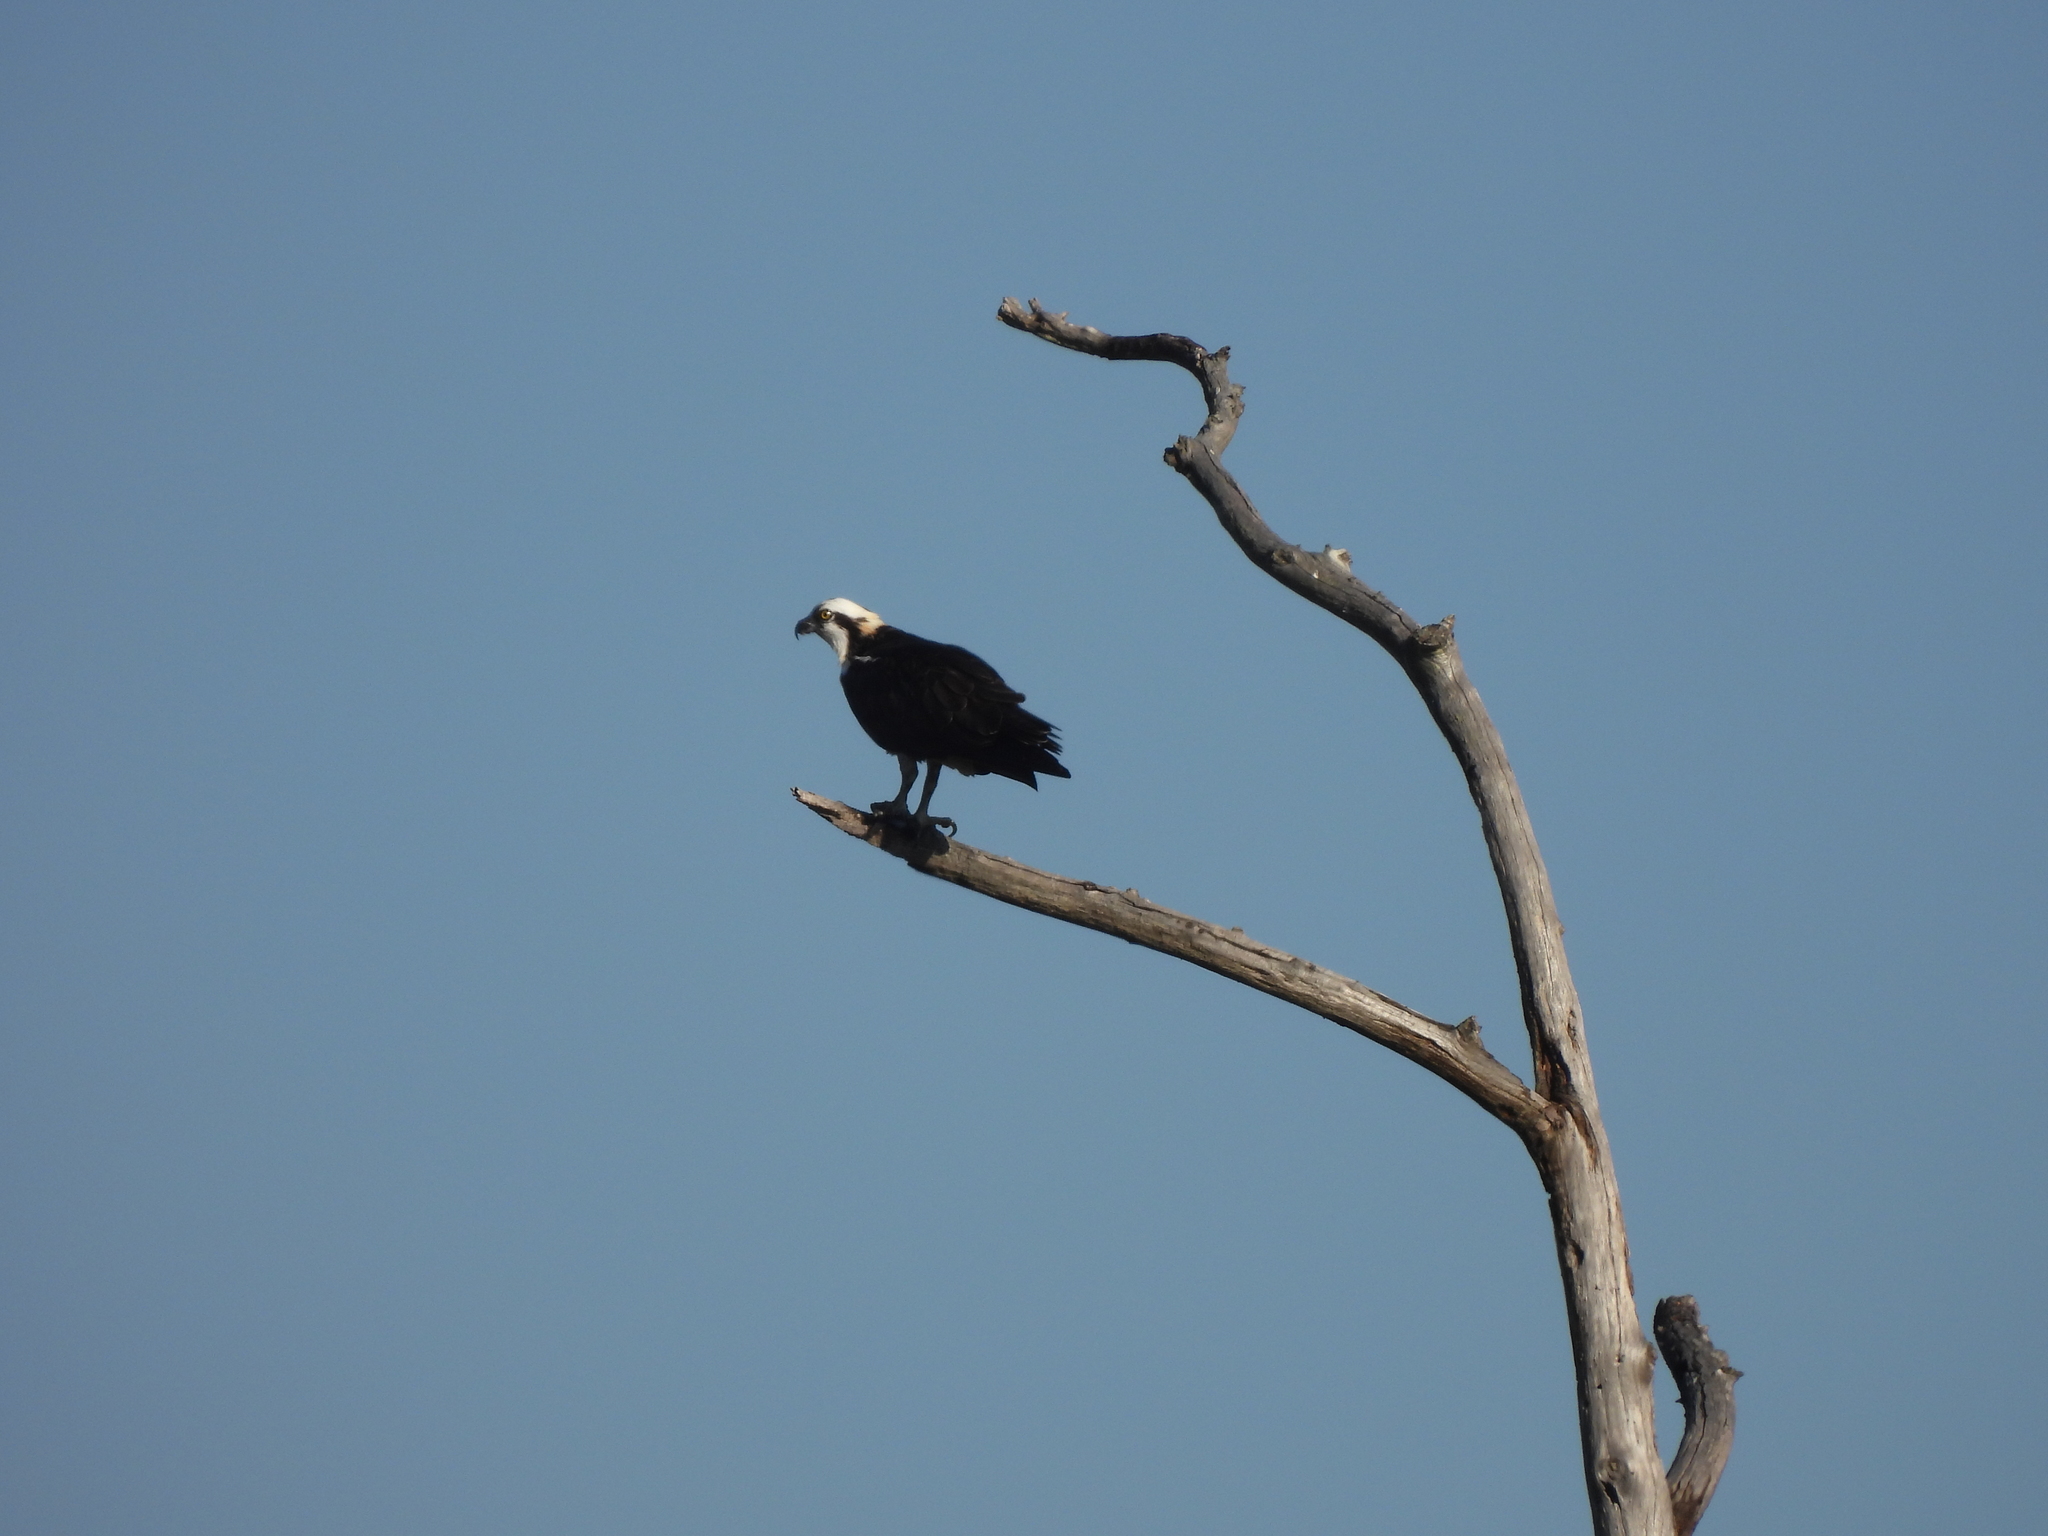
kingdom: Animalia
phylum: Chordata
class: Aves
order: Accipitriformes
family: Pandionidae
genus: Pandion
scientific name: Pandion haliaetus
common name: Osprey
